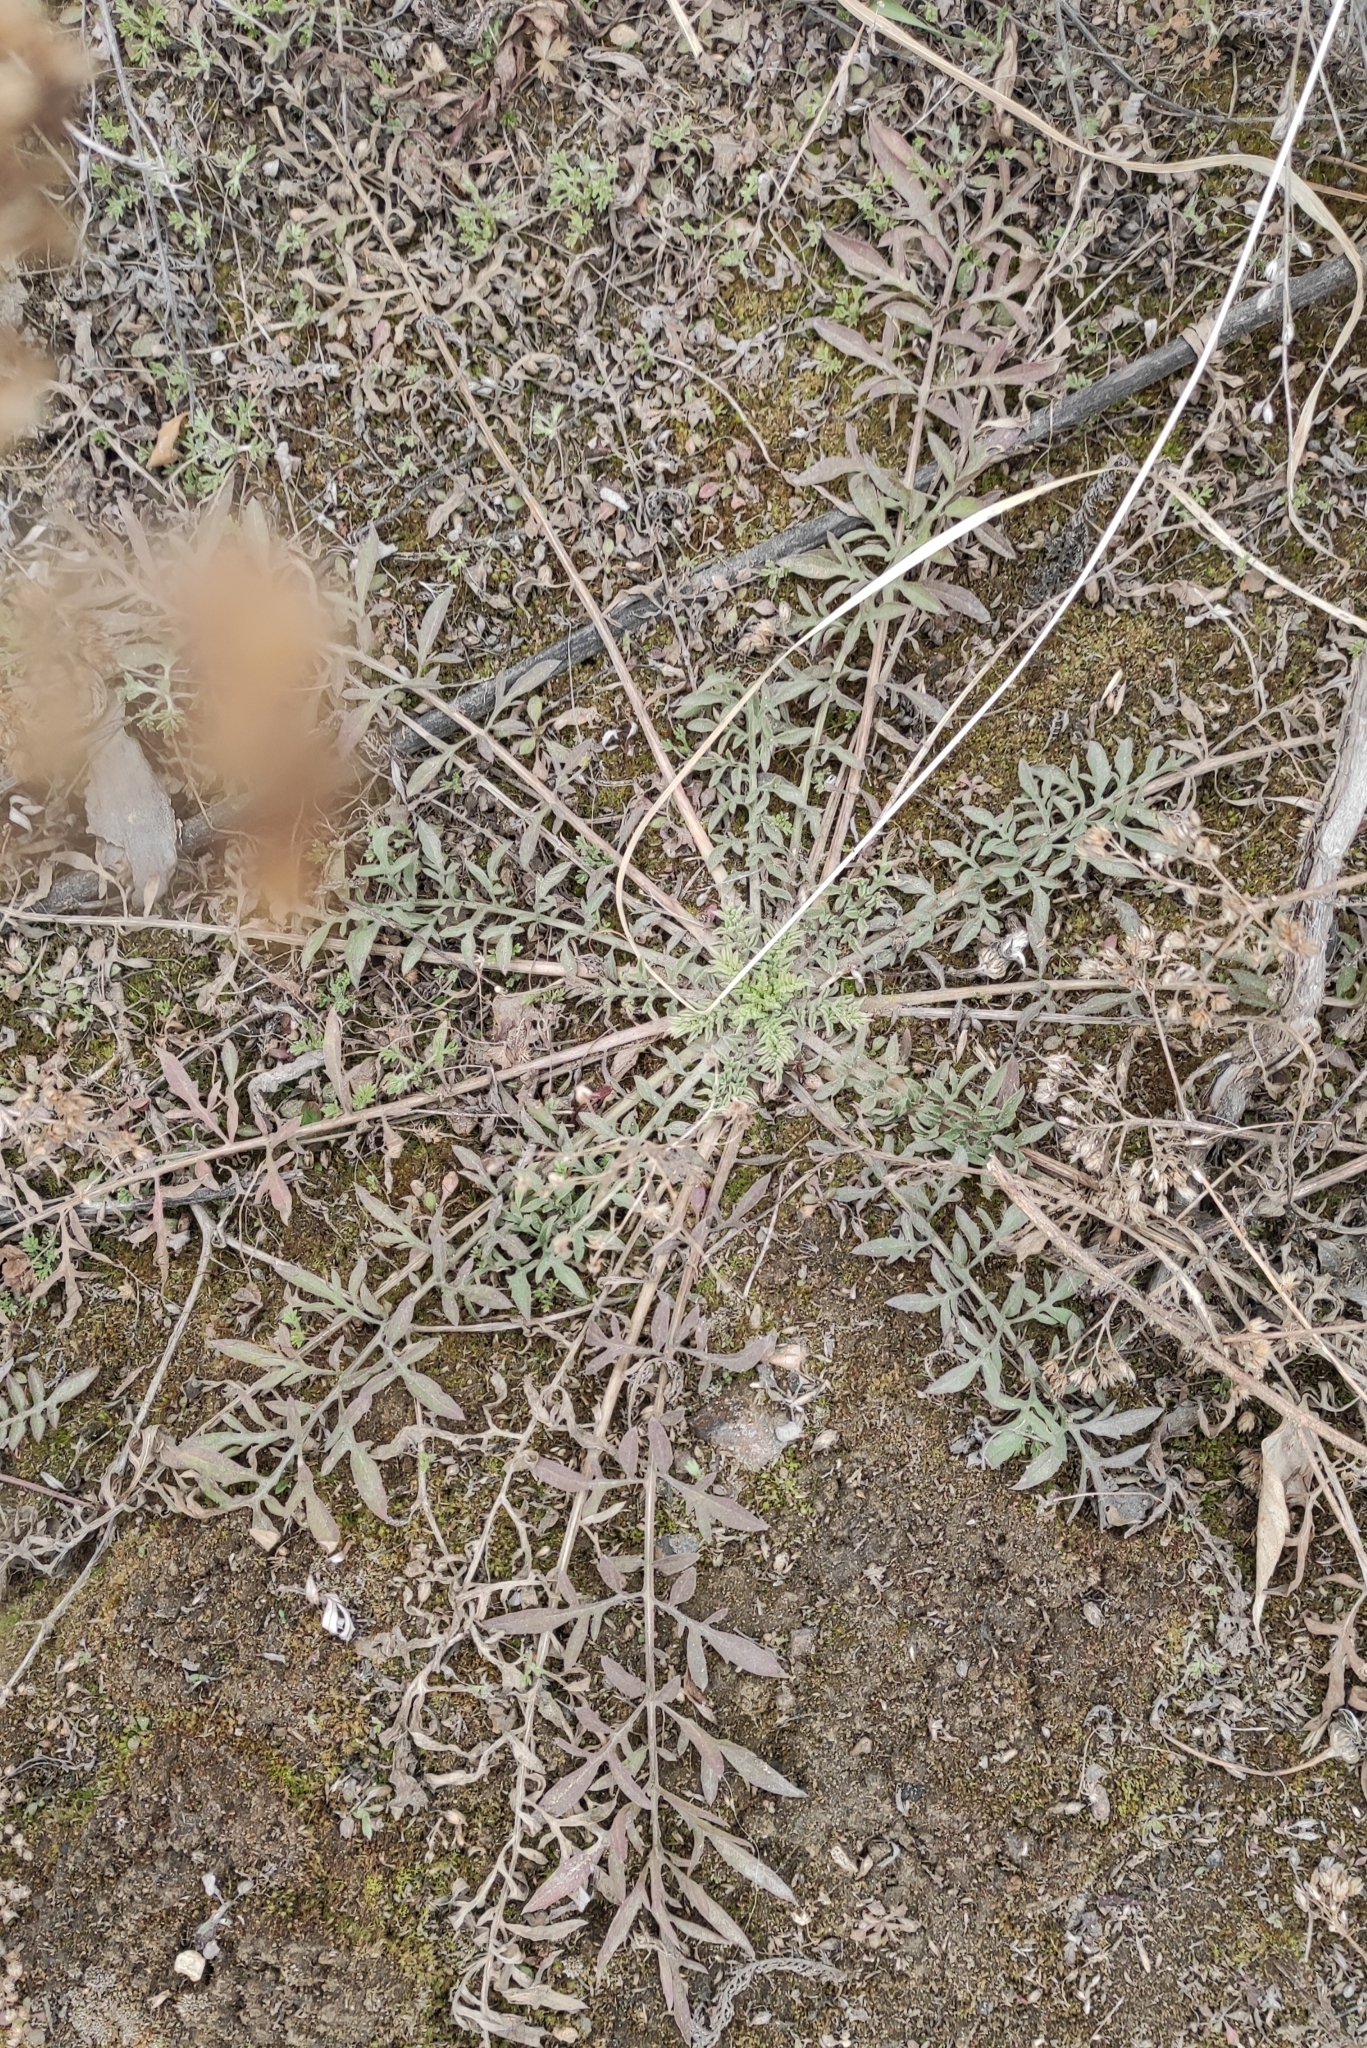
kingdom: Plantae
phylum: Tracheophyta
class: Magnoliopsida
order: Asterales
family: Asteraceae
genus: Centaurea
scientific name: Centaurea stoebe
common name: Spotted knapweed
